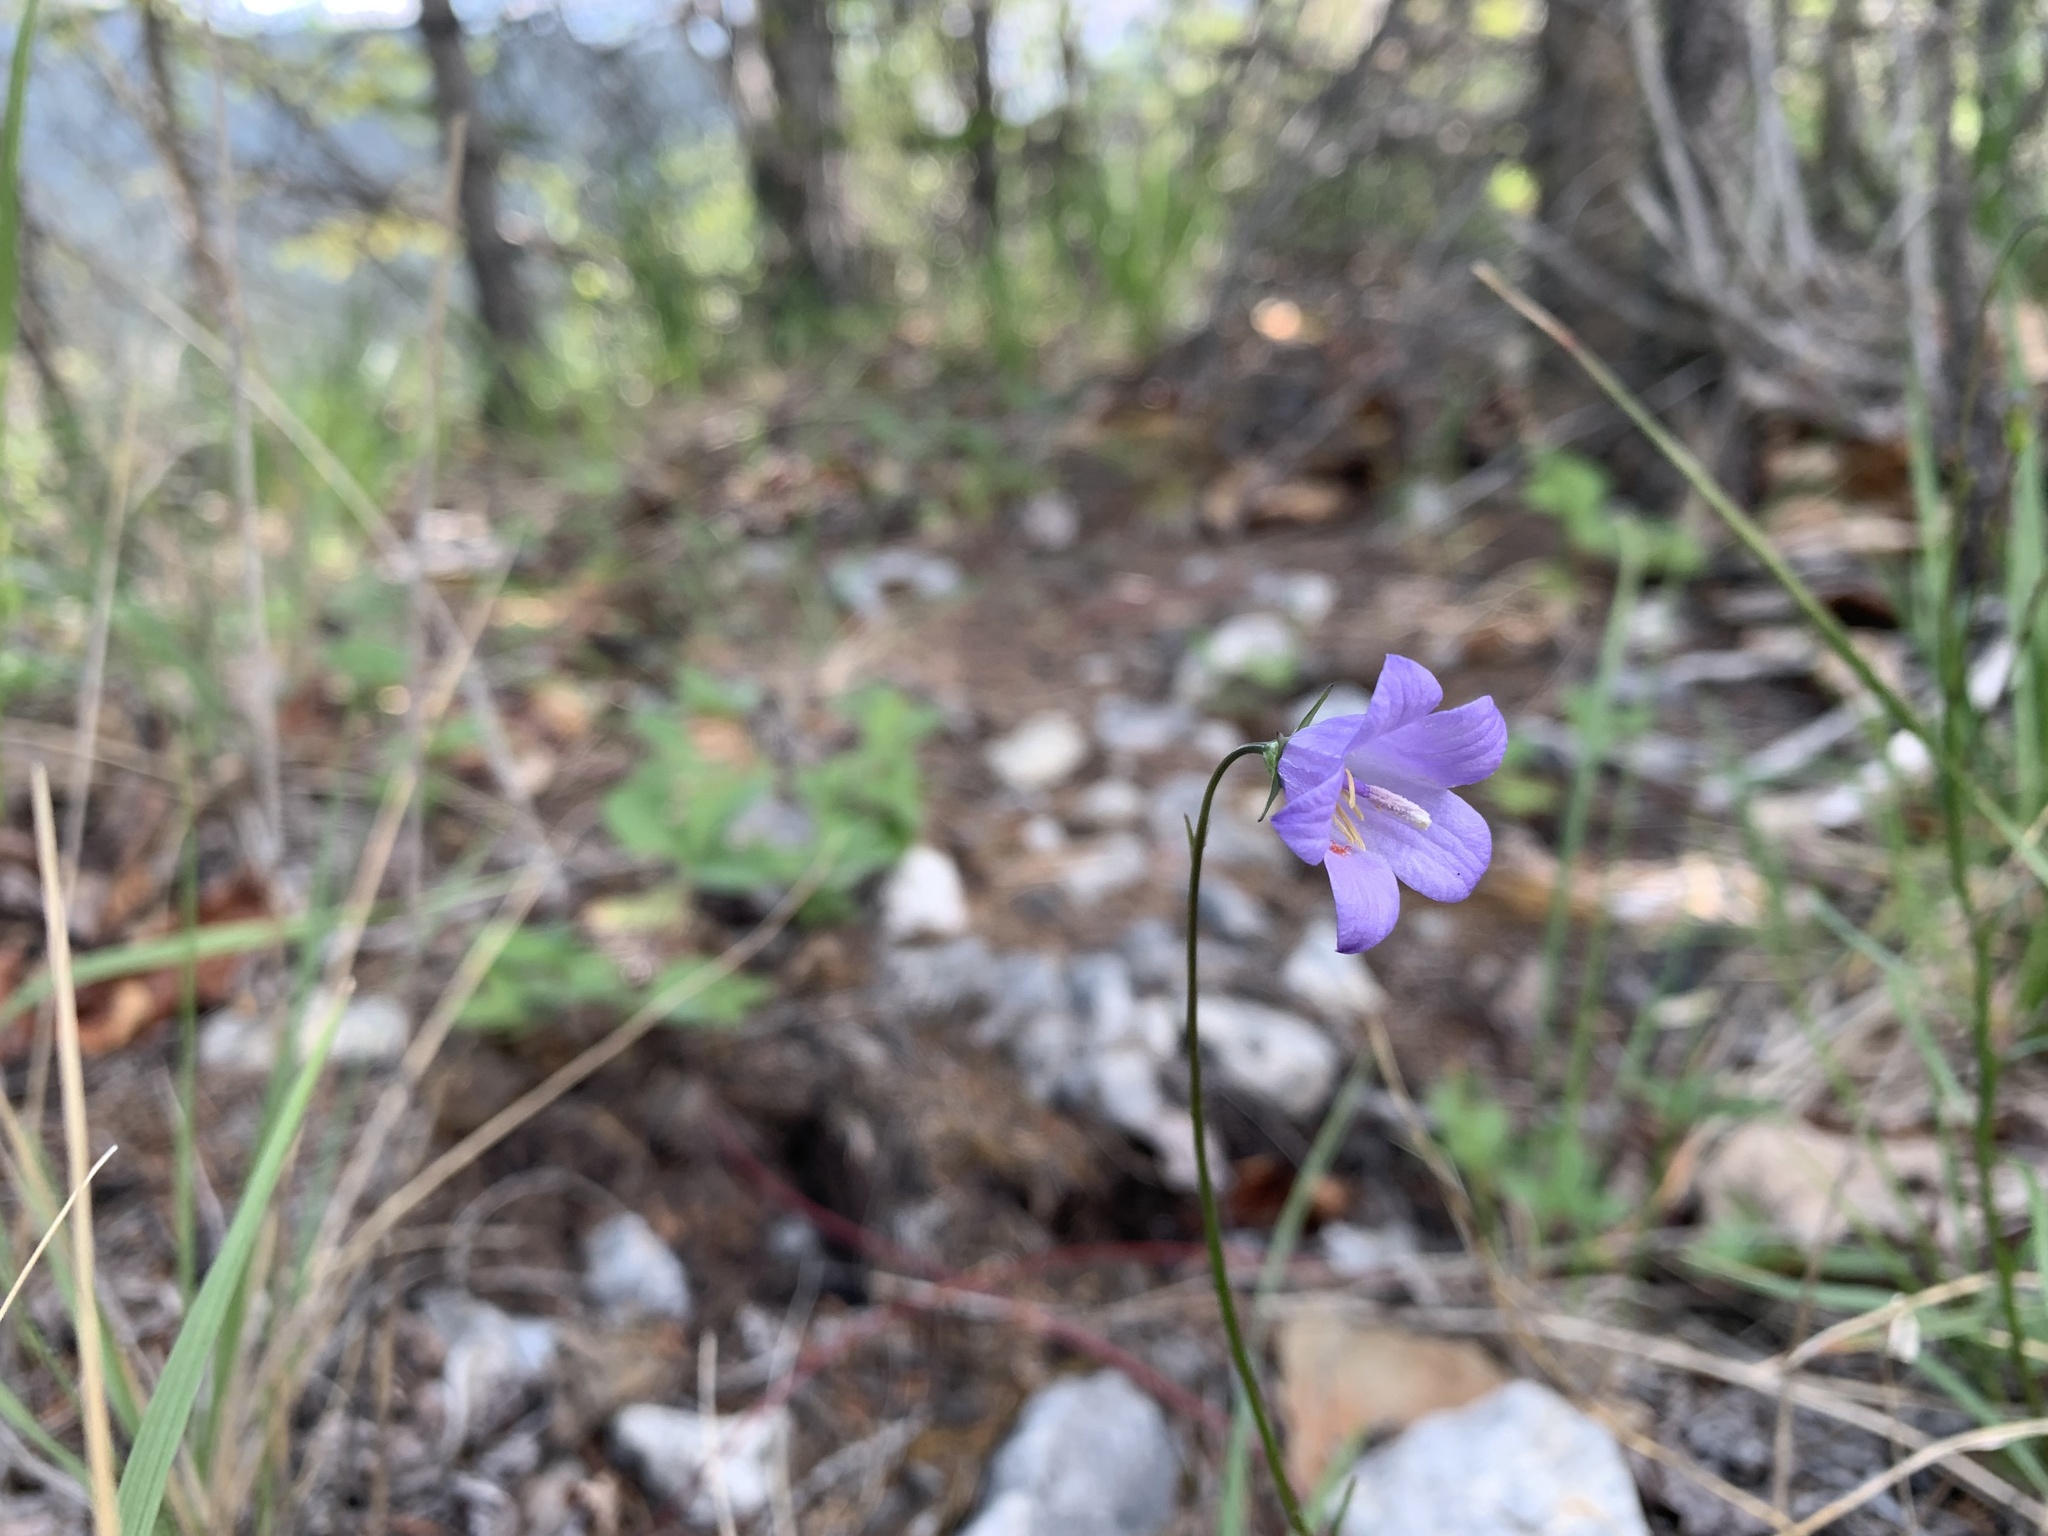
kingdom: Plantae
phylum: Tracheophyta
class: Magnoliopsida
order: Asterales
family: Campanulaceae
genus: Campanula
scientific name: Campanula alaskana
